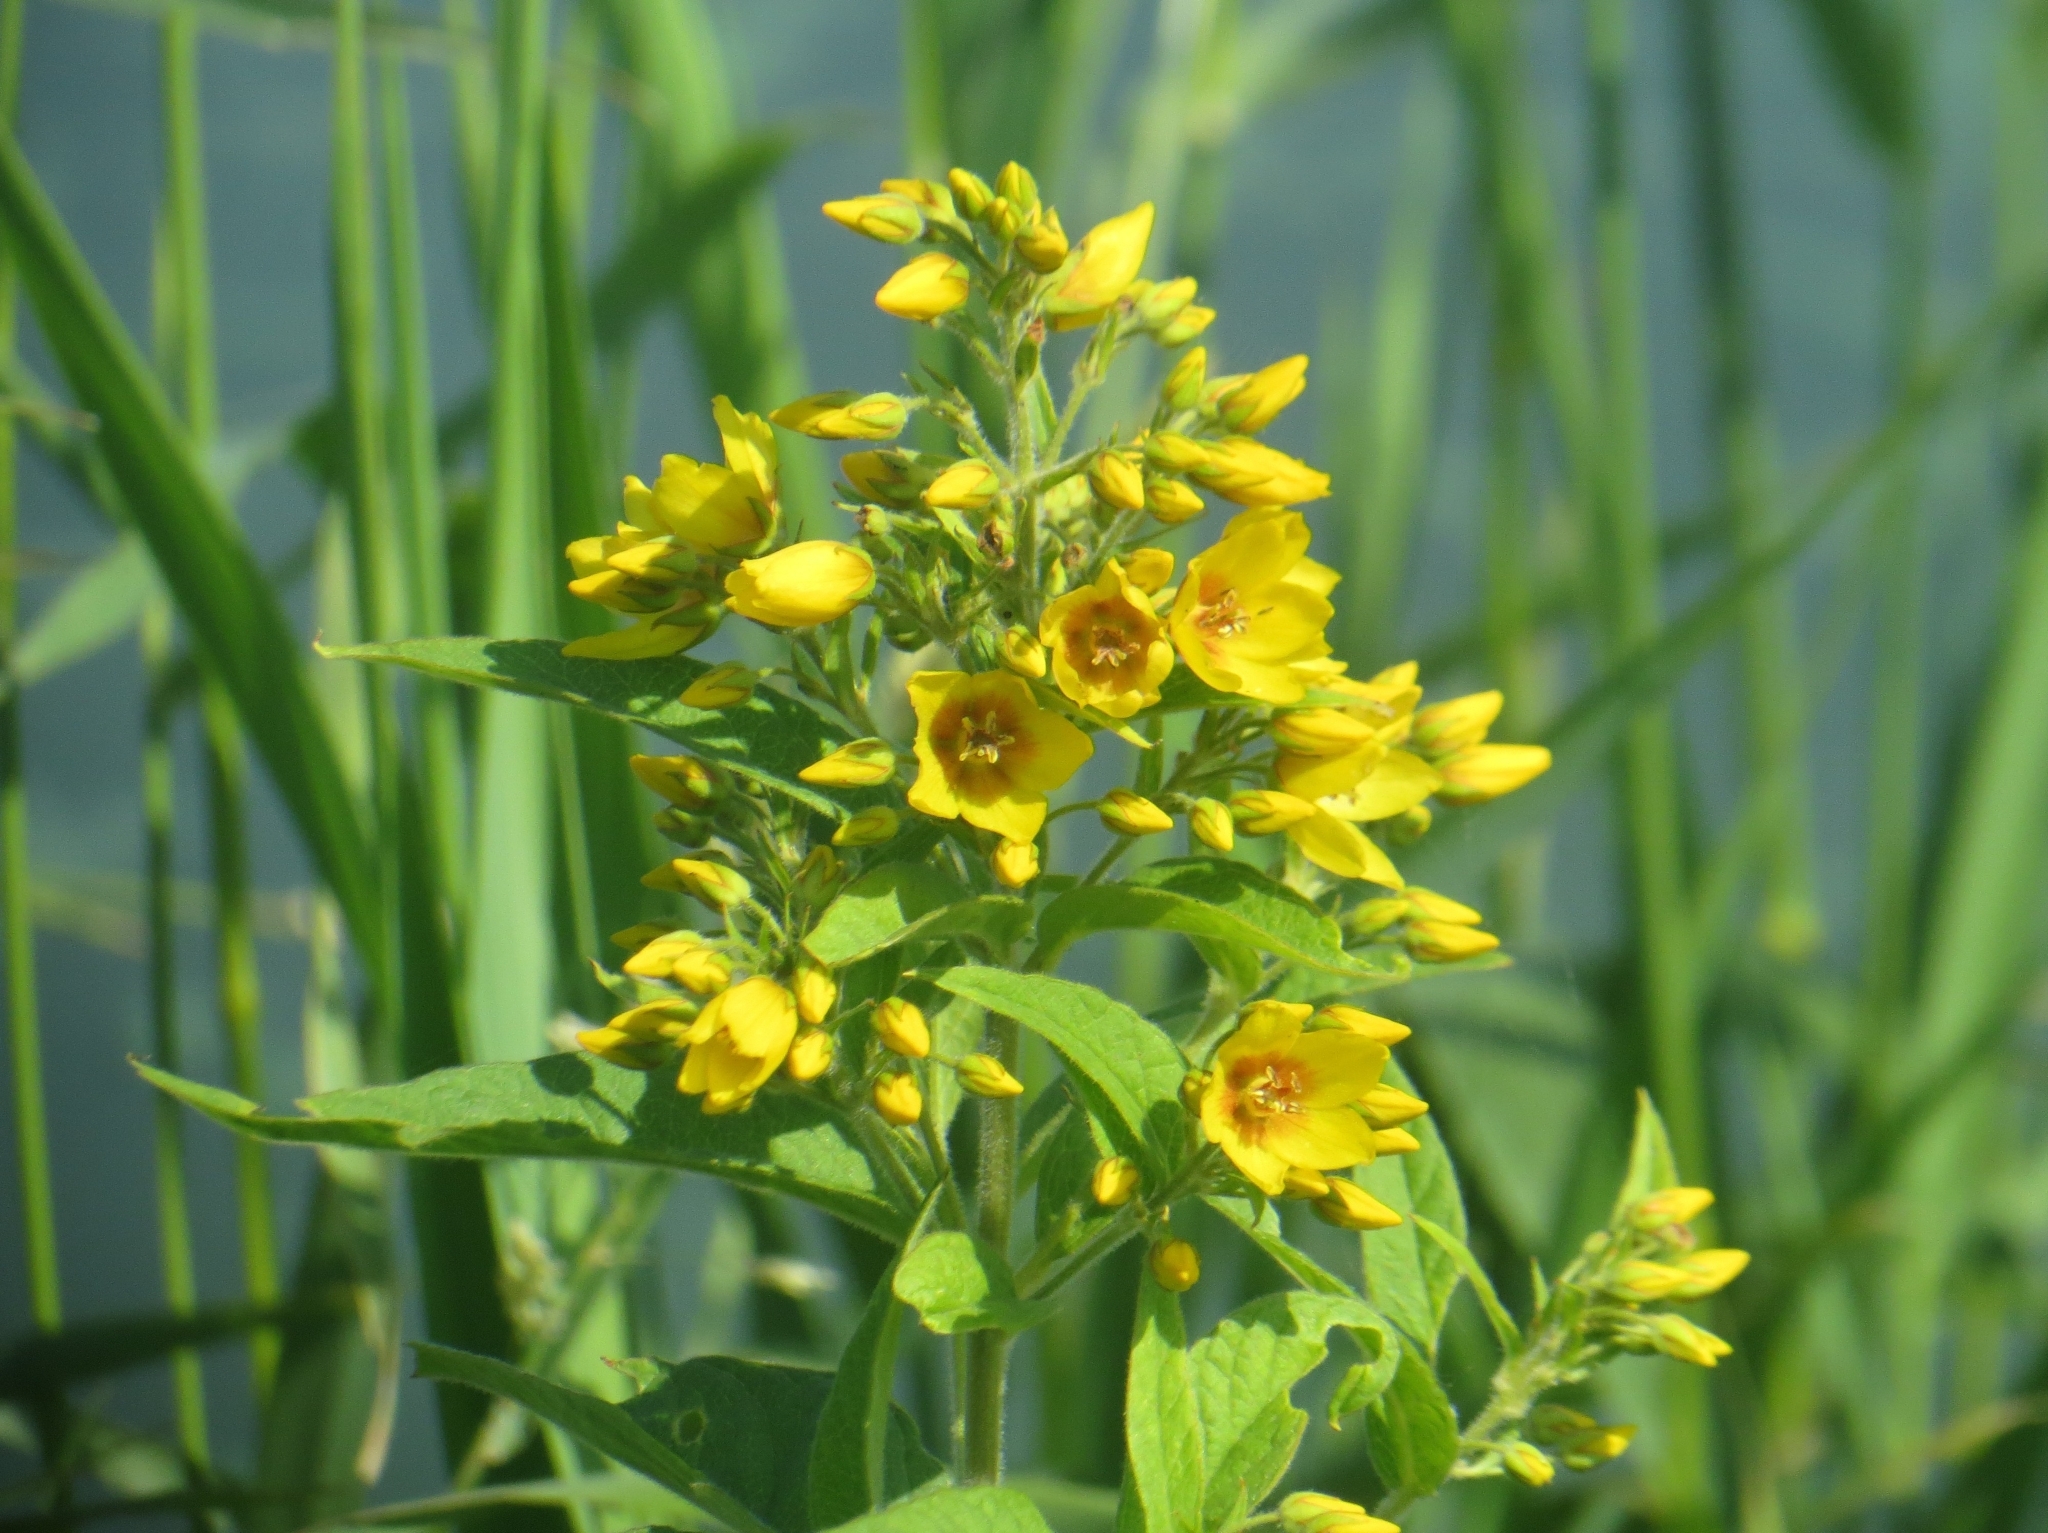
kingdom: Plantae
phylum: Tracheophyta
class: Magnoliopsida
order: Ericales
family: Primulaceae
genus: Lysimachia
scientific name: Lysimachia vulgaris
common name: Yellow loosestrife
